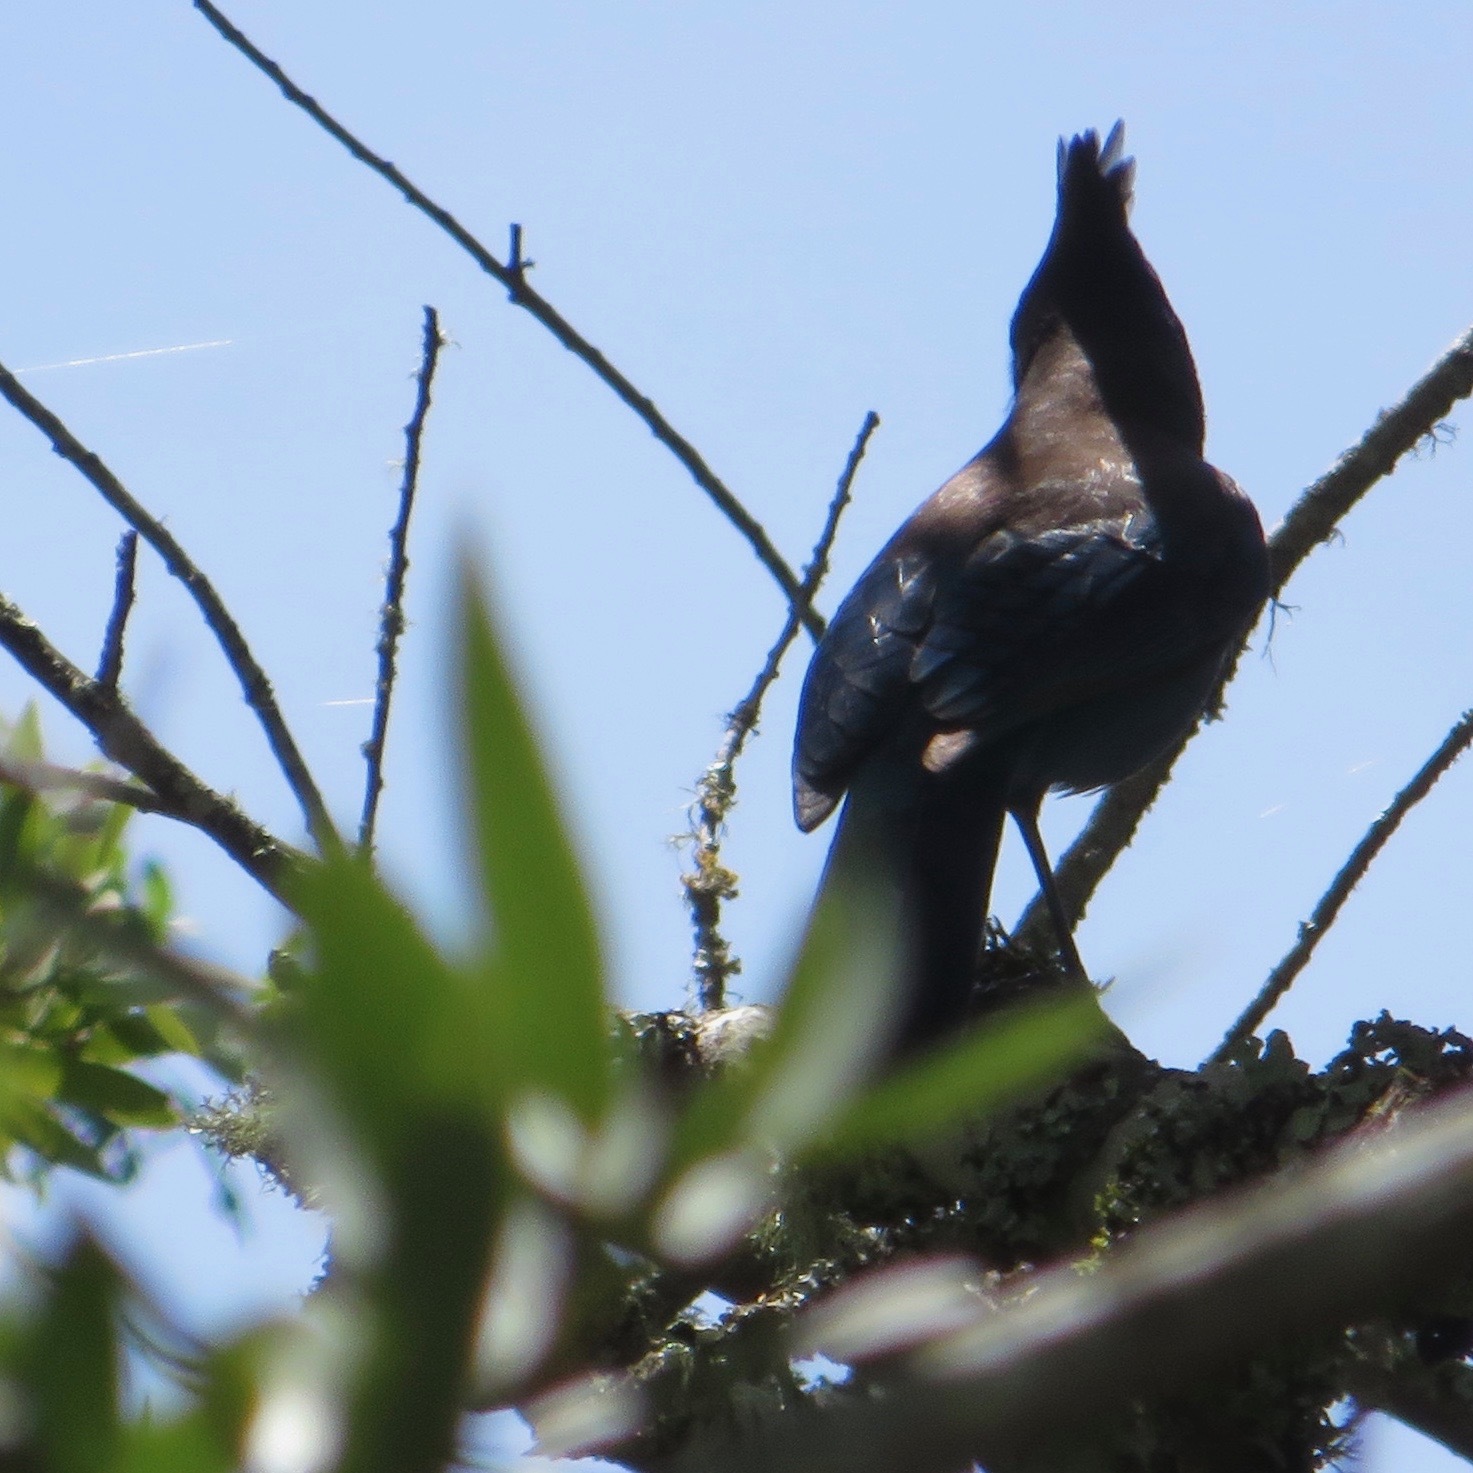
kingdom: Animalia
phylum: Chordata
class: Aves
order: Passeriformes
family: Corvidae
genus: Cyanocitta
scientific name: Cyanocitta stelleri
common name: Steller's jay
